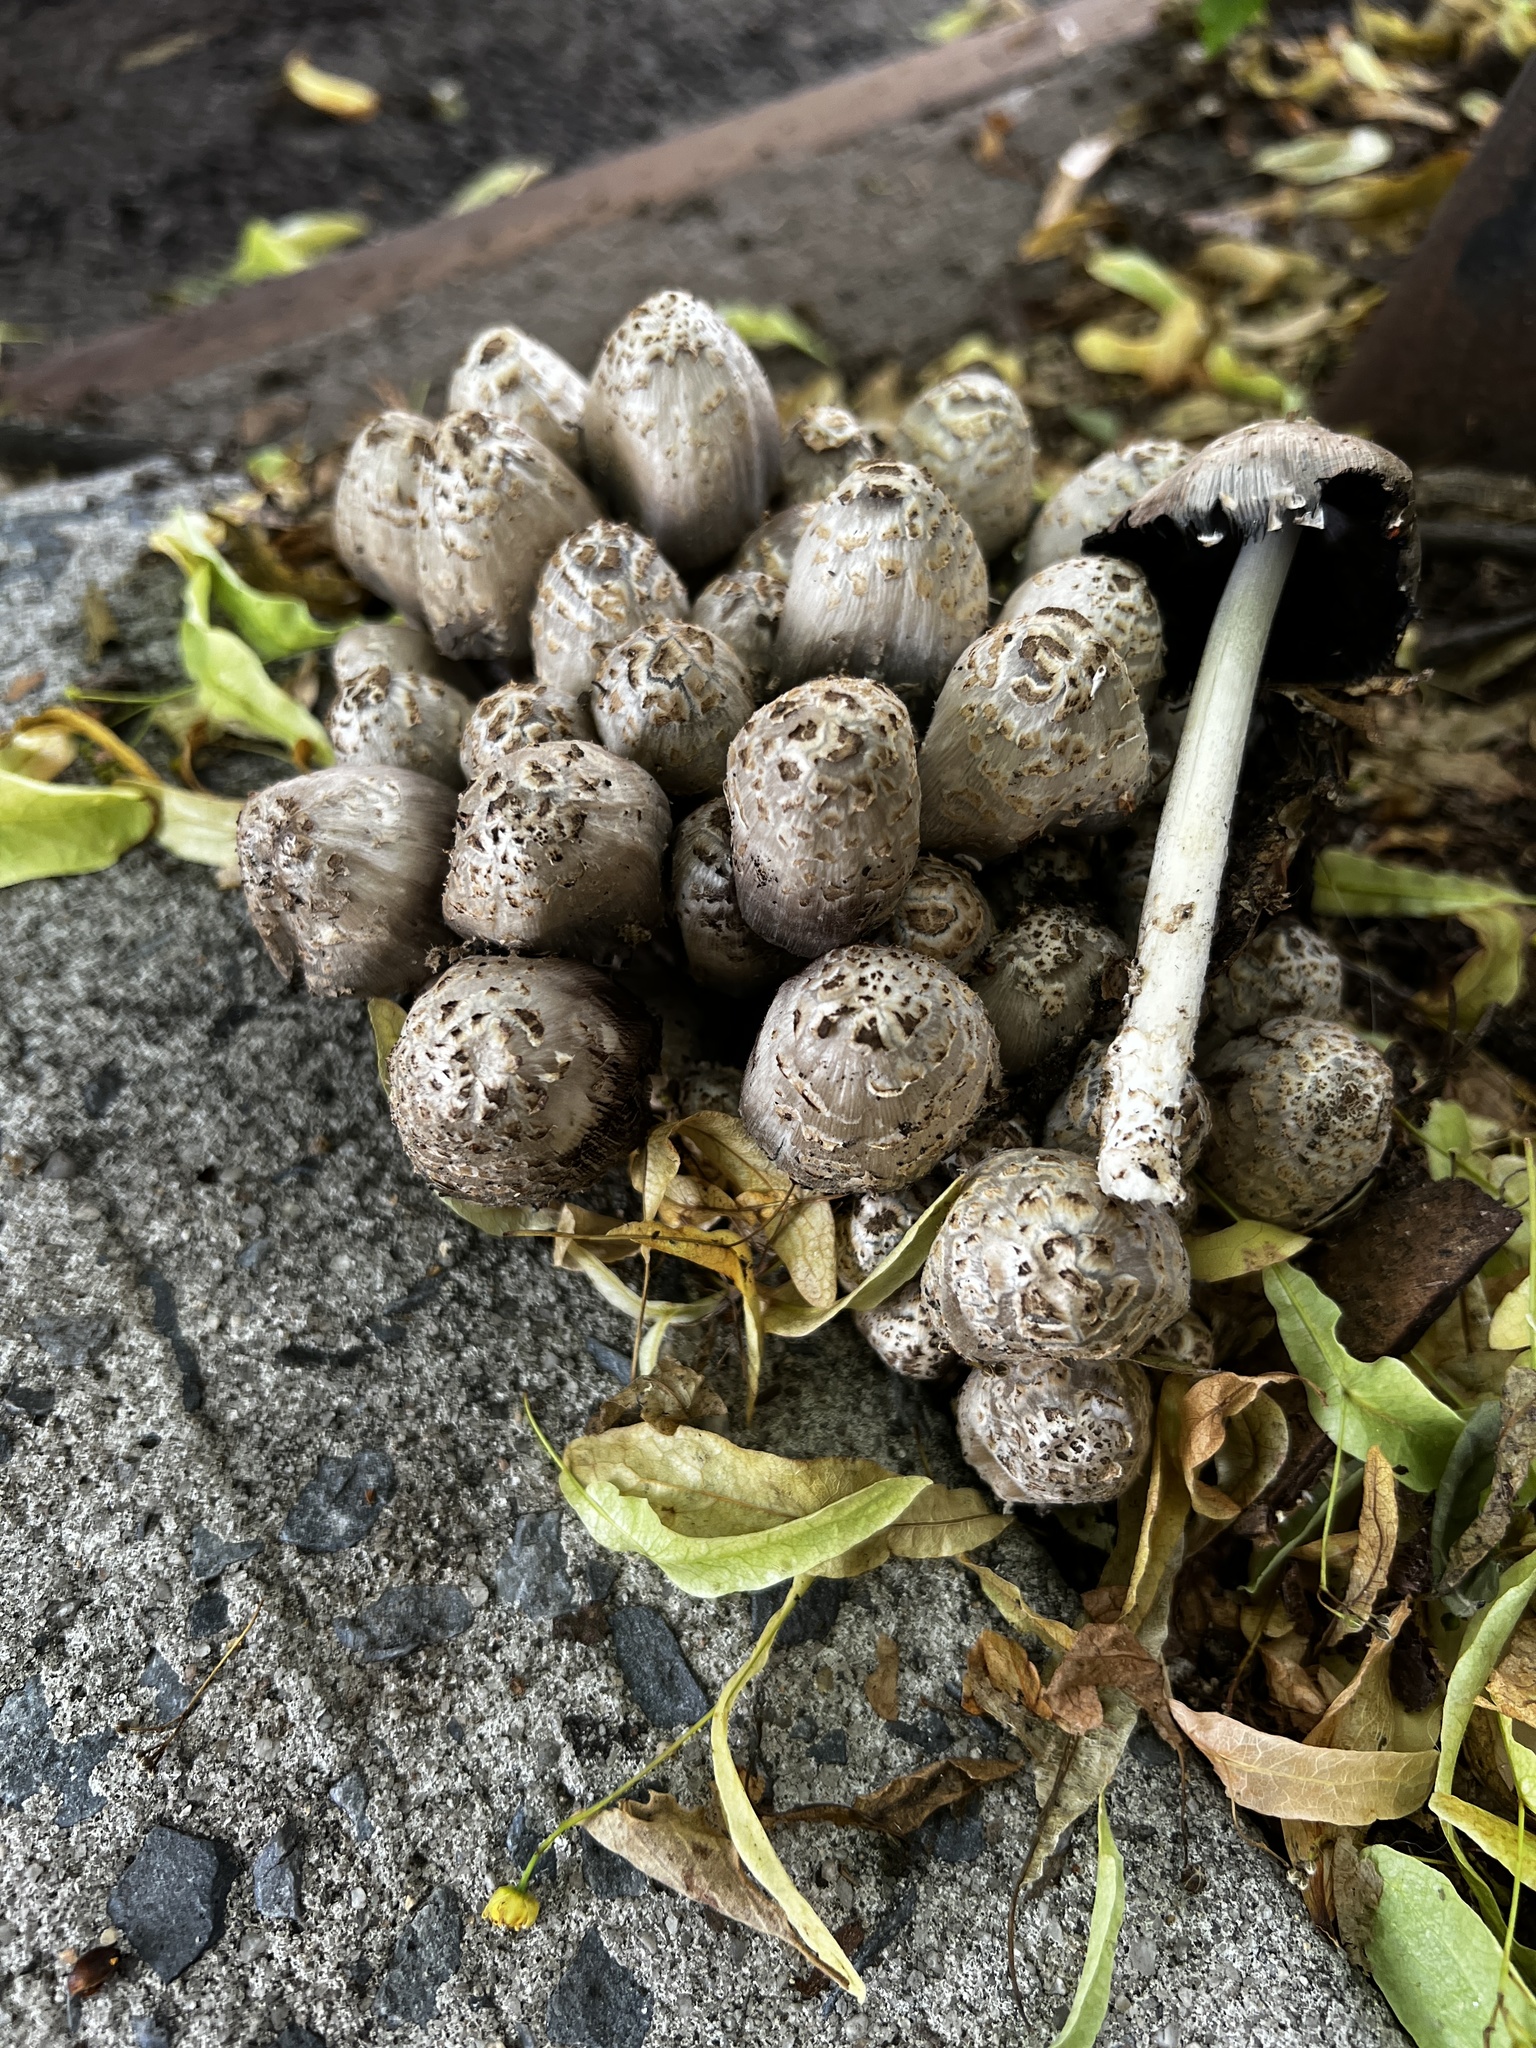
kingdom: Fungi
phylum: Basidiomycota
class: Agaricomycetes
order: Agaricales
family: Psathyrellaceae
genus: Coprinopsis
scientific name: Coprinopsis variegata
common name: Scaly ink cap
